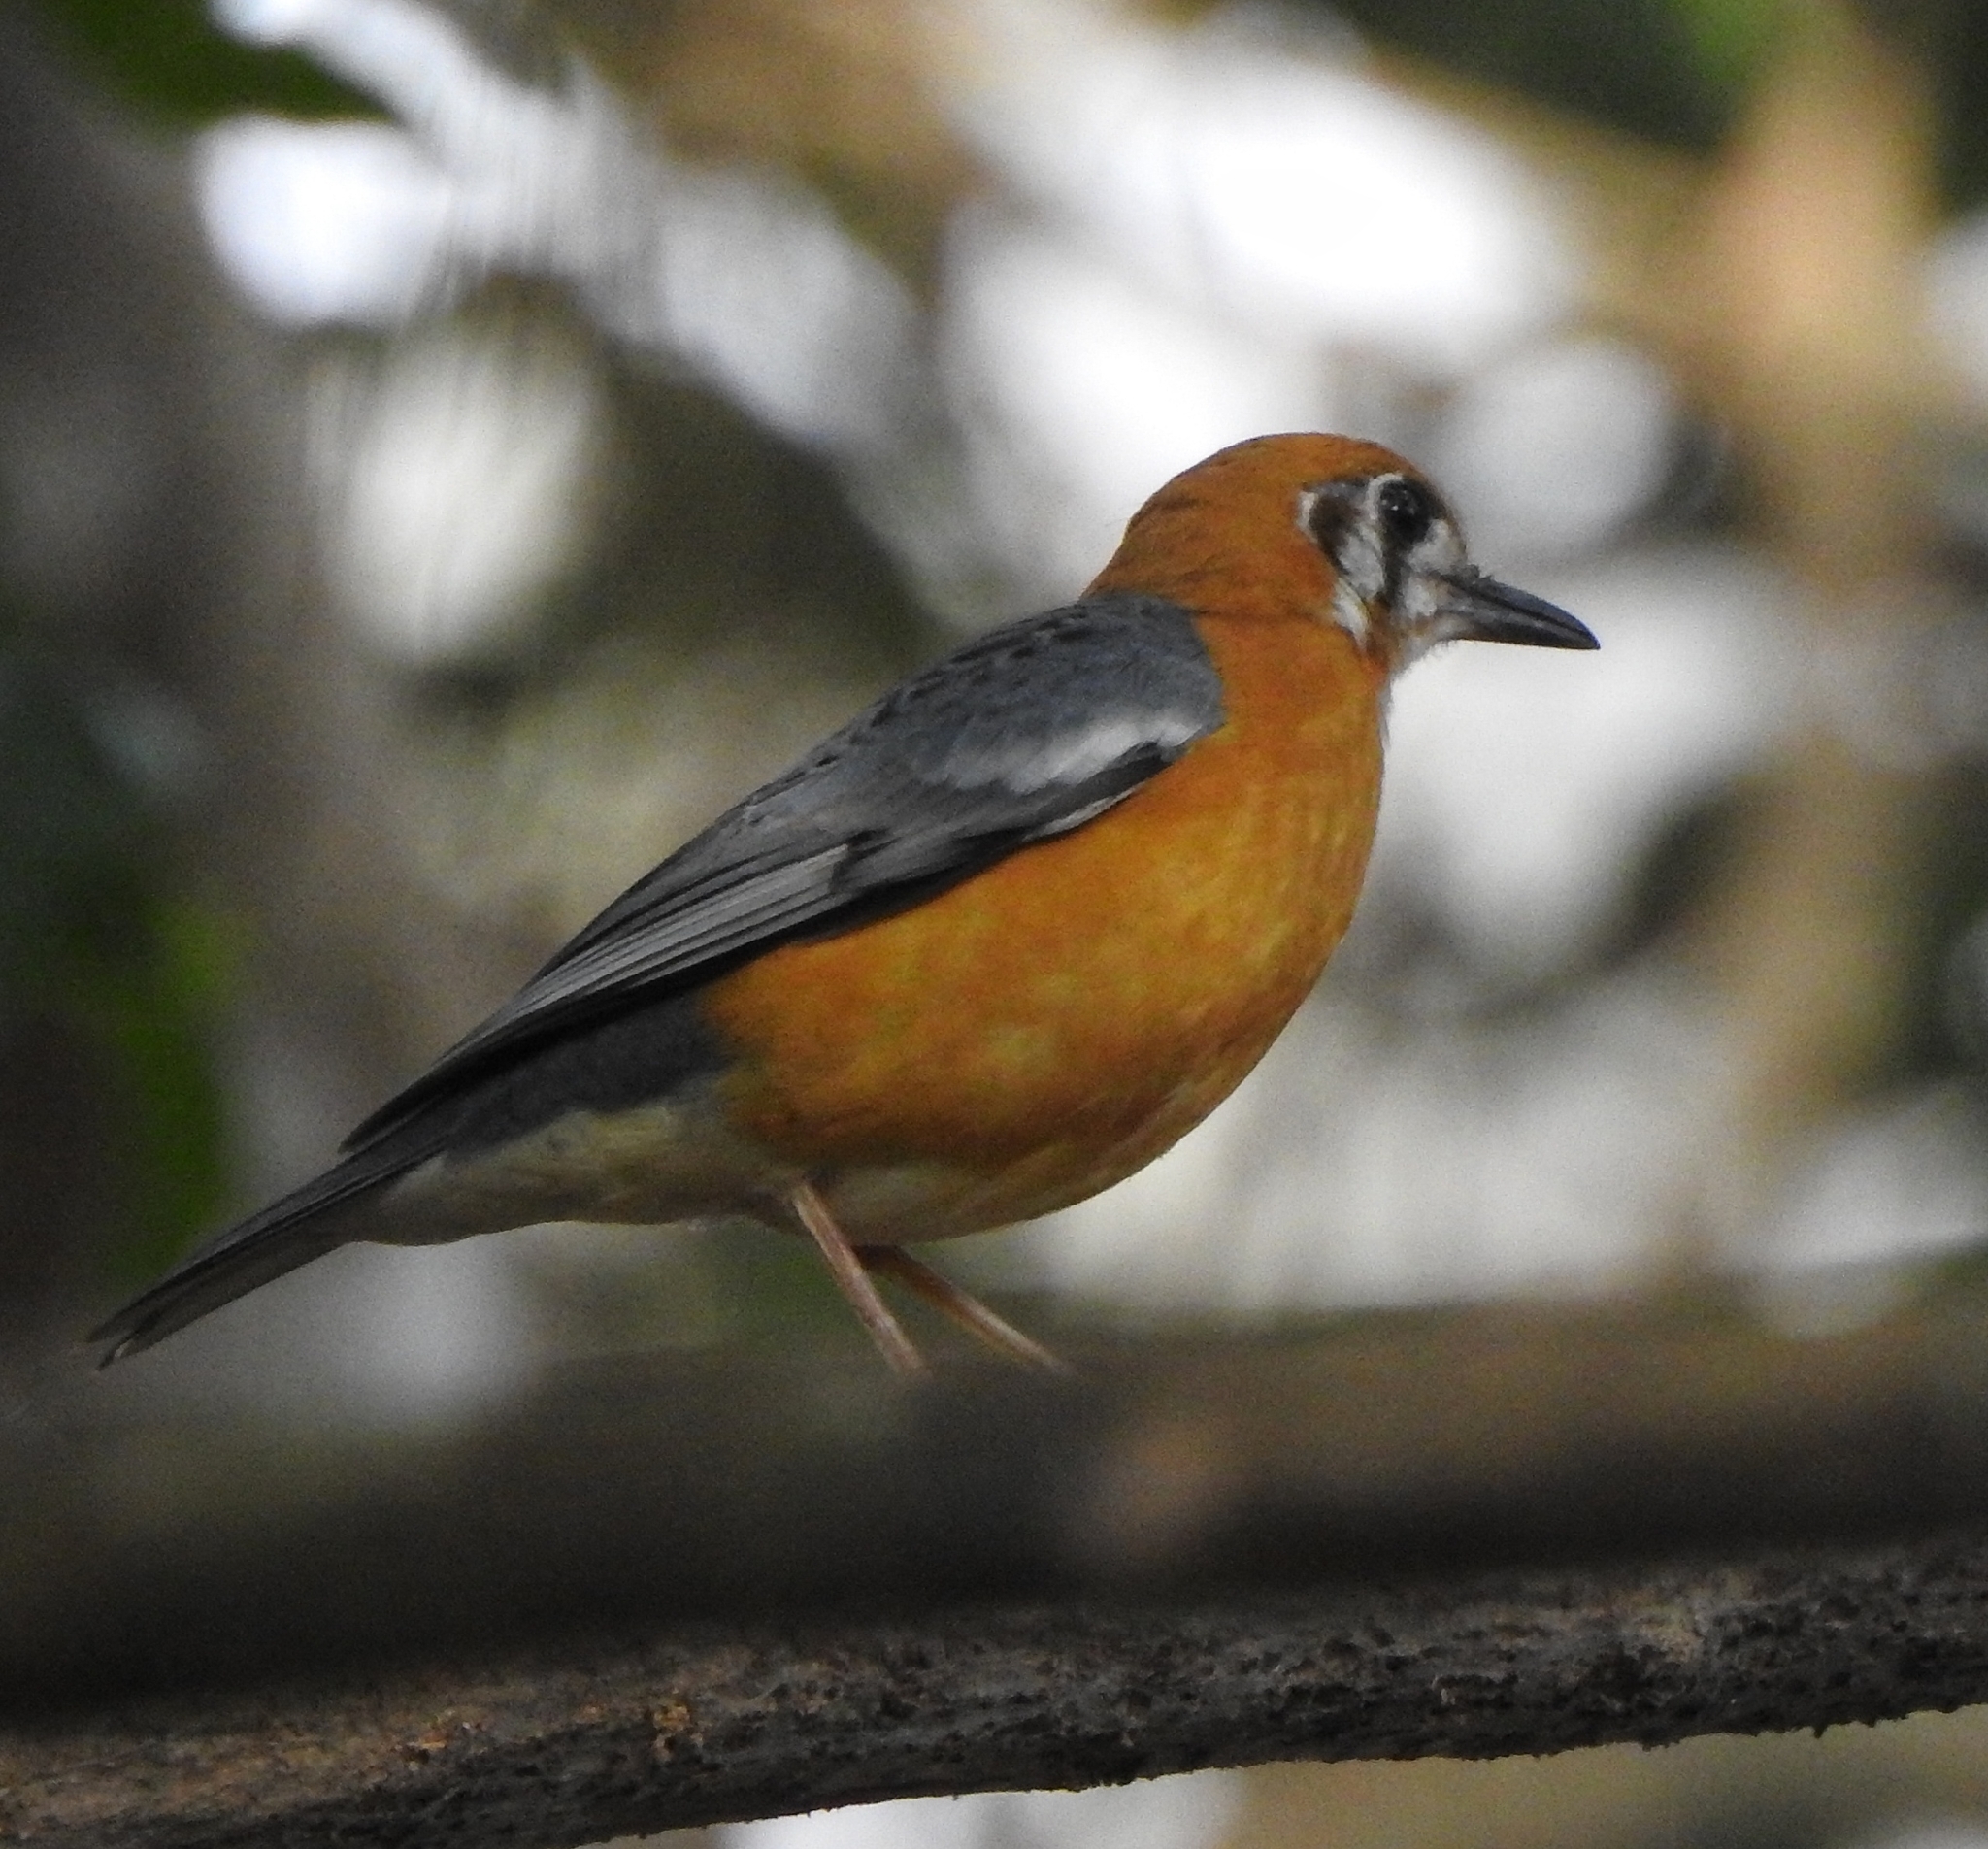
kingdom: Animalia
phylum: Chordata
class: Aves
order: Passeriformes
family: Turdidae
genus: Geokichla
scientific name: Geokichla citrina
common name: Orange-headed thrush
